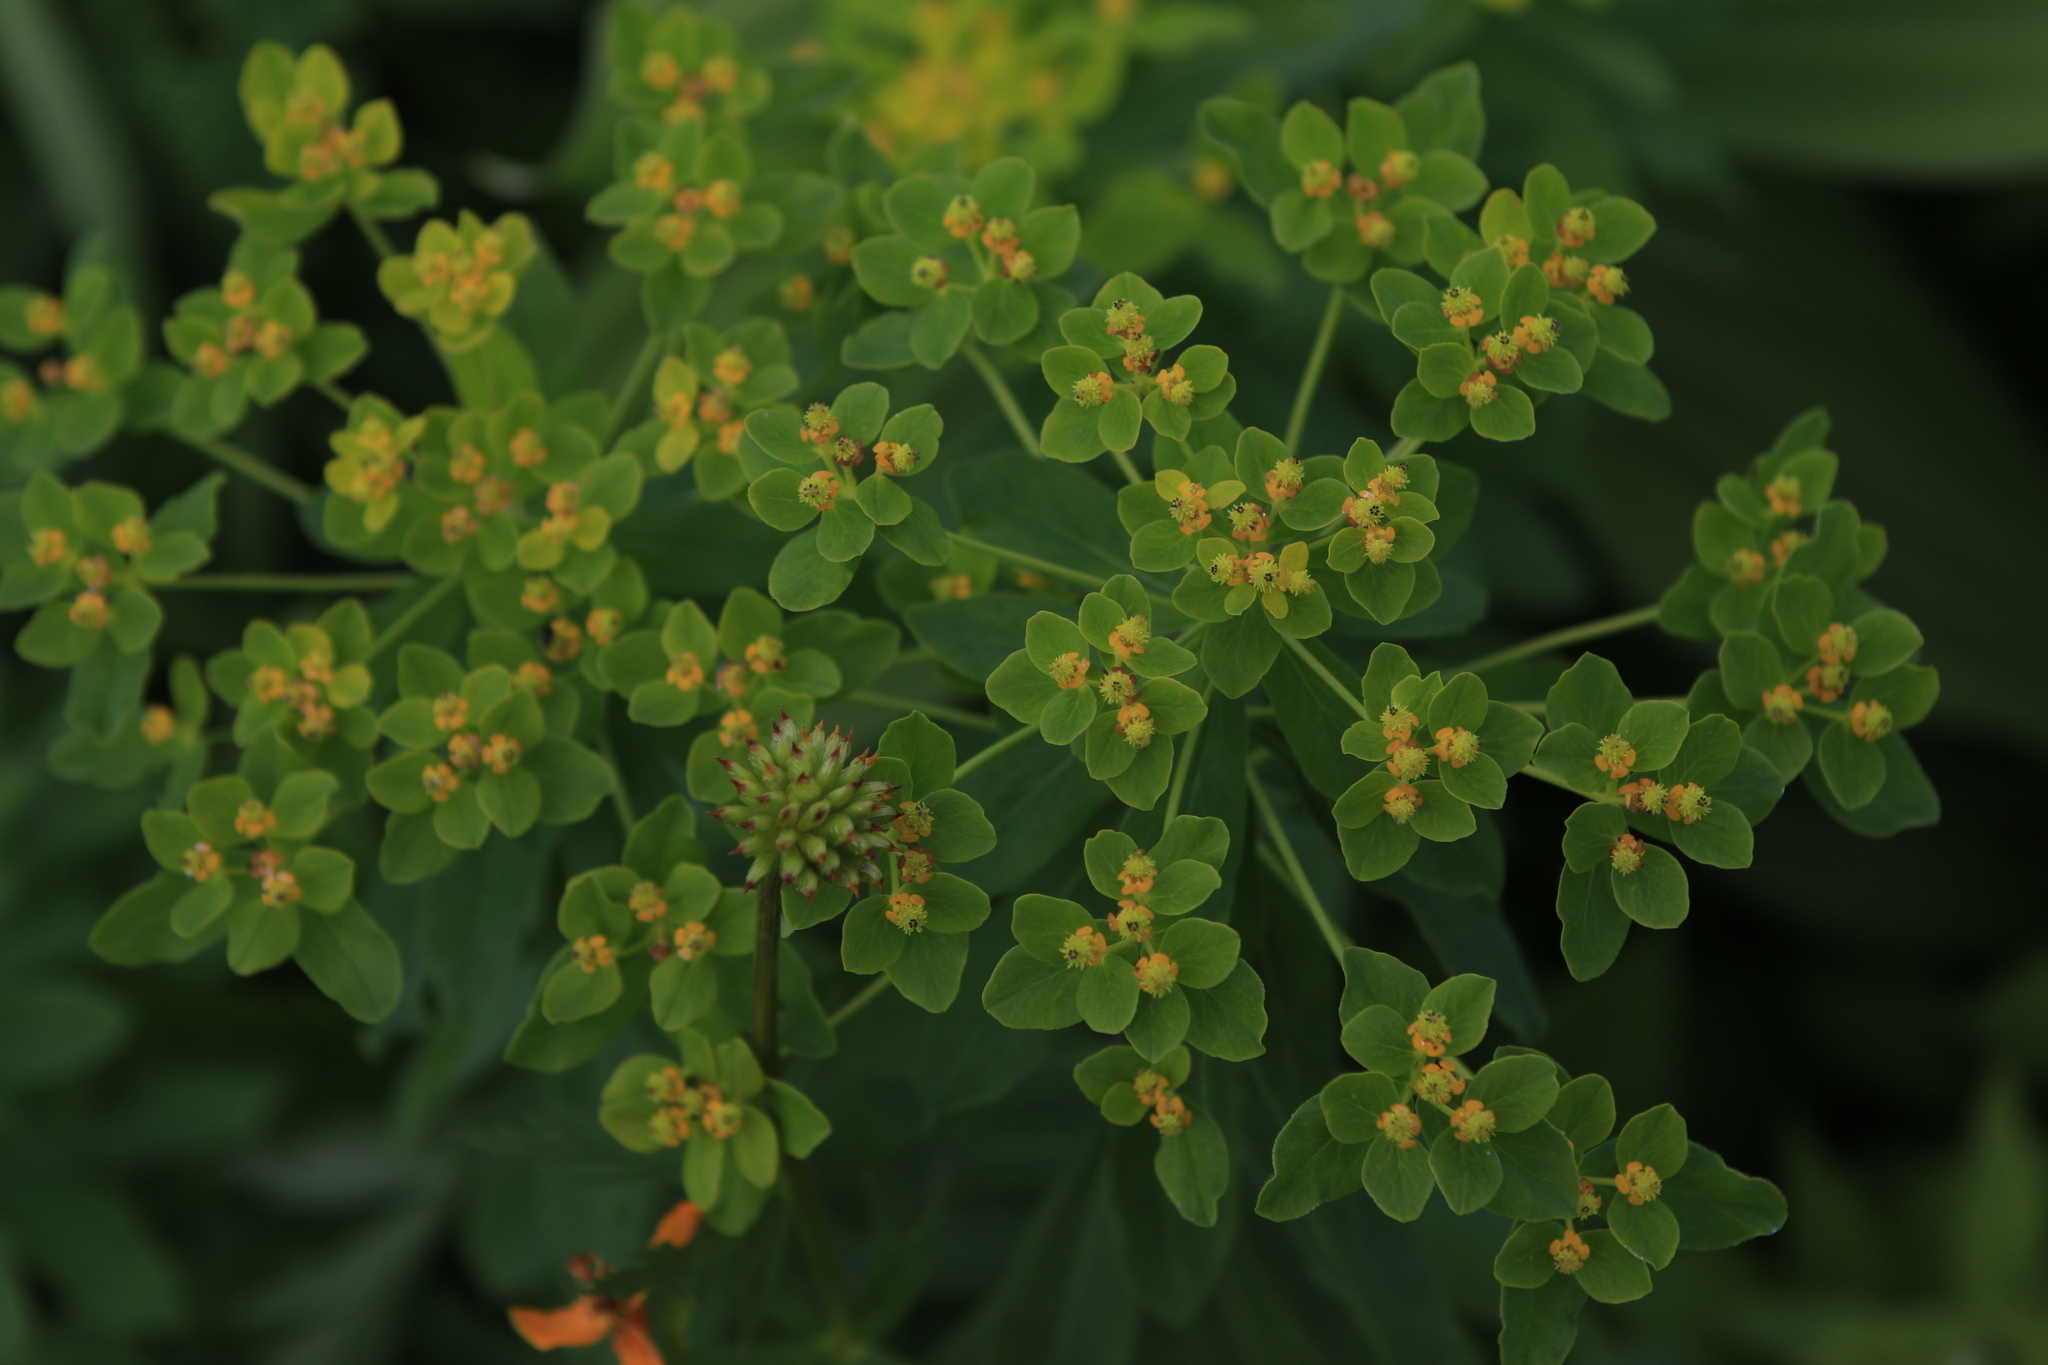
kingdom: Plantae
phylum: Tracheophyta
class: Magnoliopsida
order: Malpighiales
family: Euphorbiaceae
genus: Euphorbia
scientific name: Euphorbia pilosa
